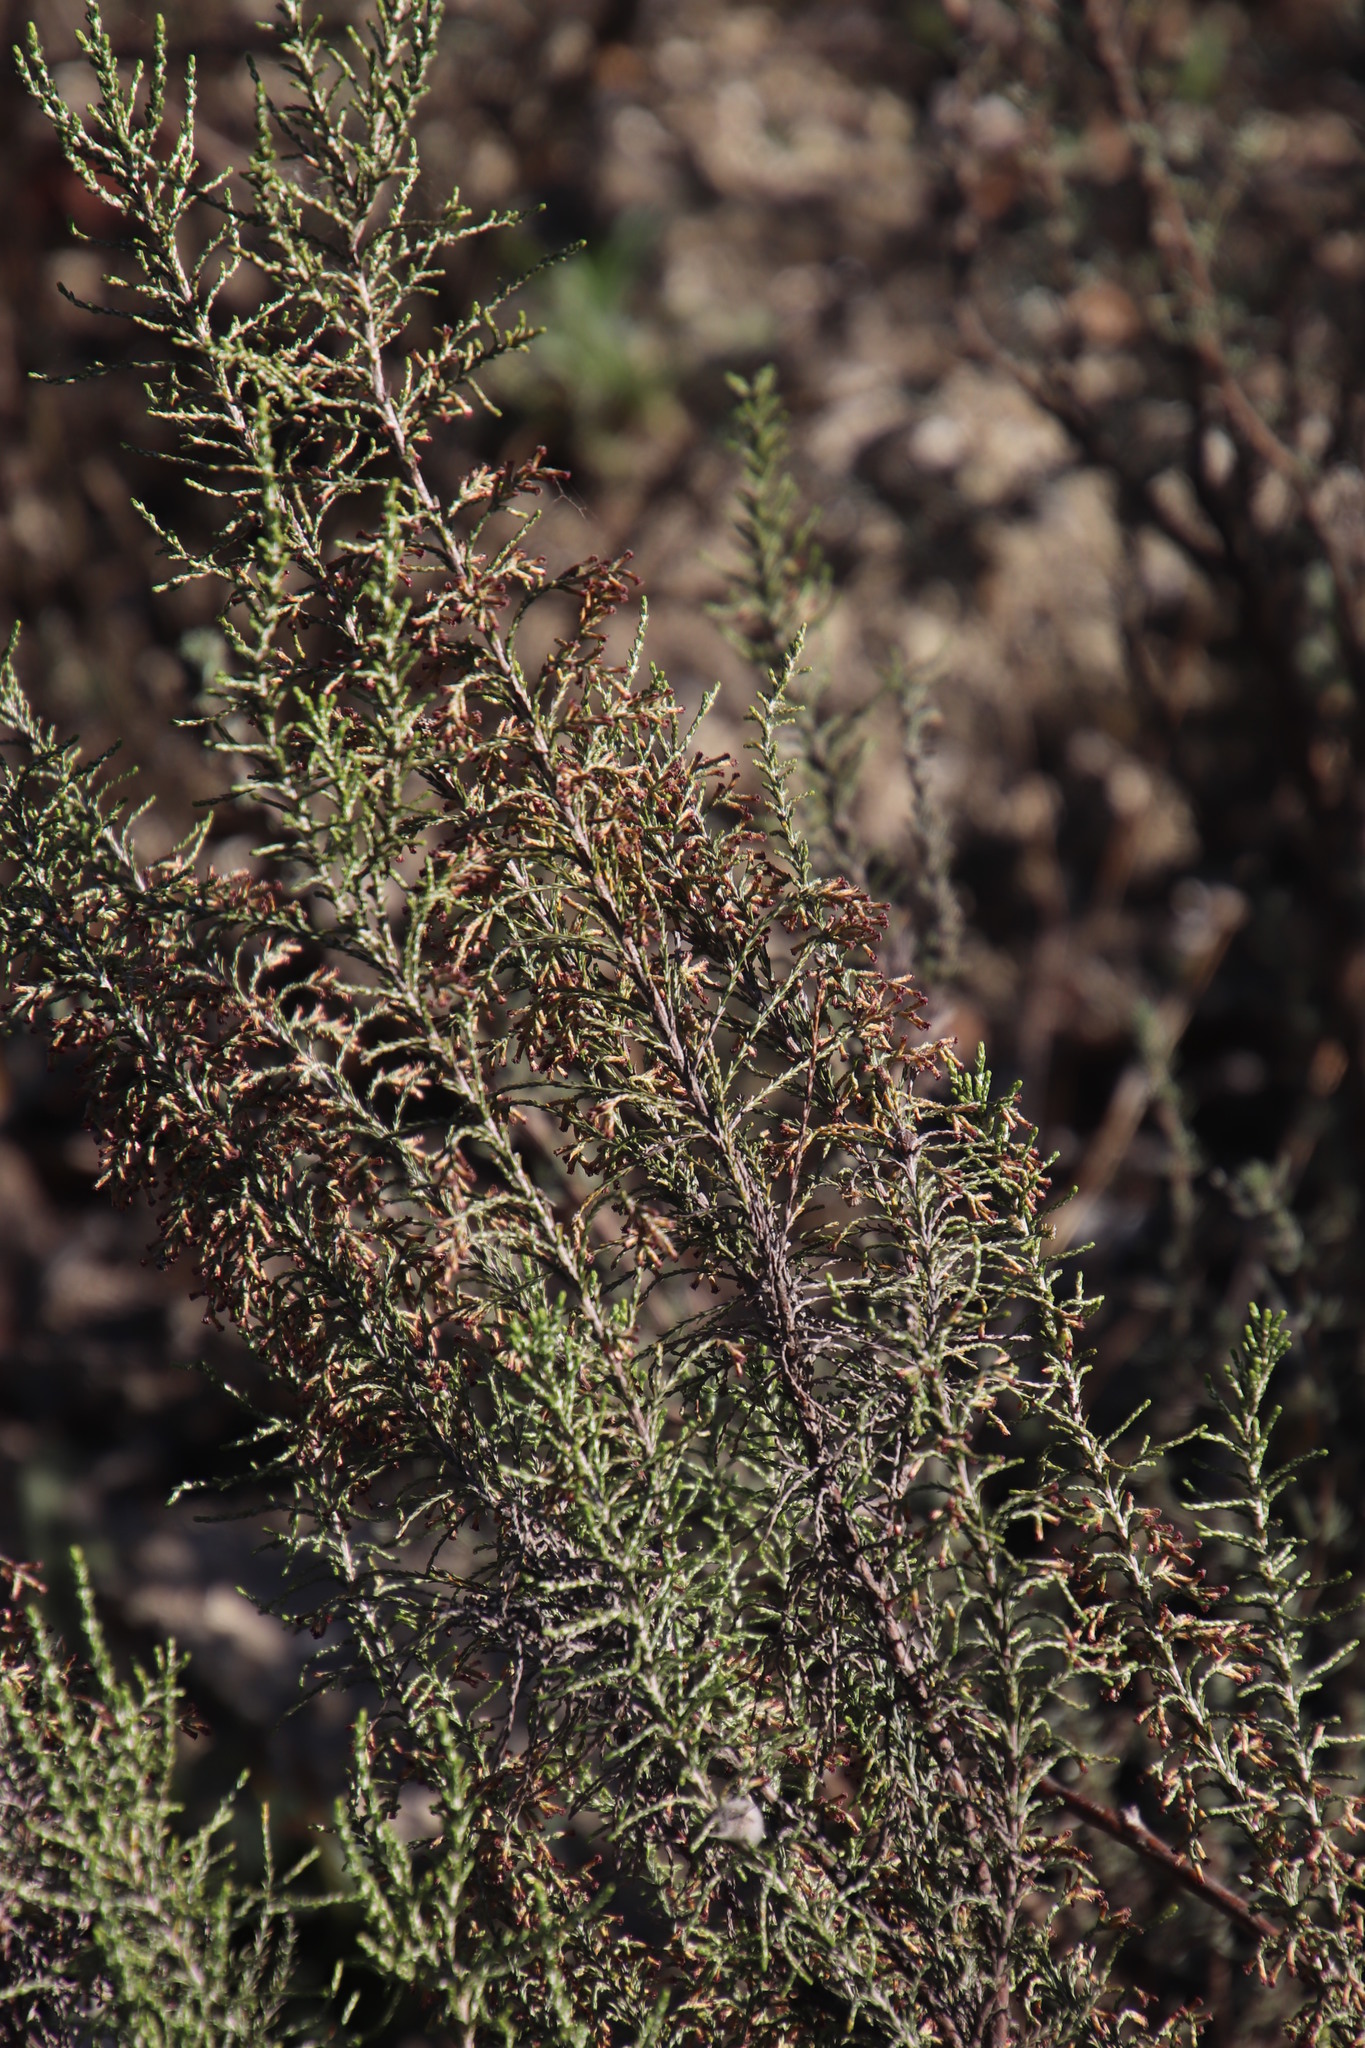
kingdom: Plantae
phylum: Tracheophyta
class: Magnoliopsida
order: Asterales
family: Asteraceae
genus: Dicerothamnus
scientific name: Dicerothamnus rhinocerotis
